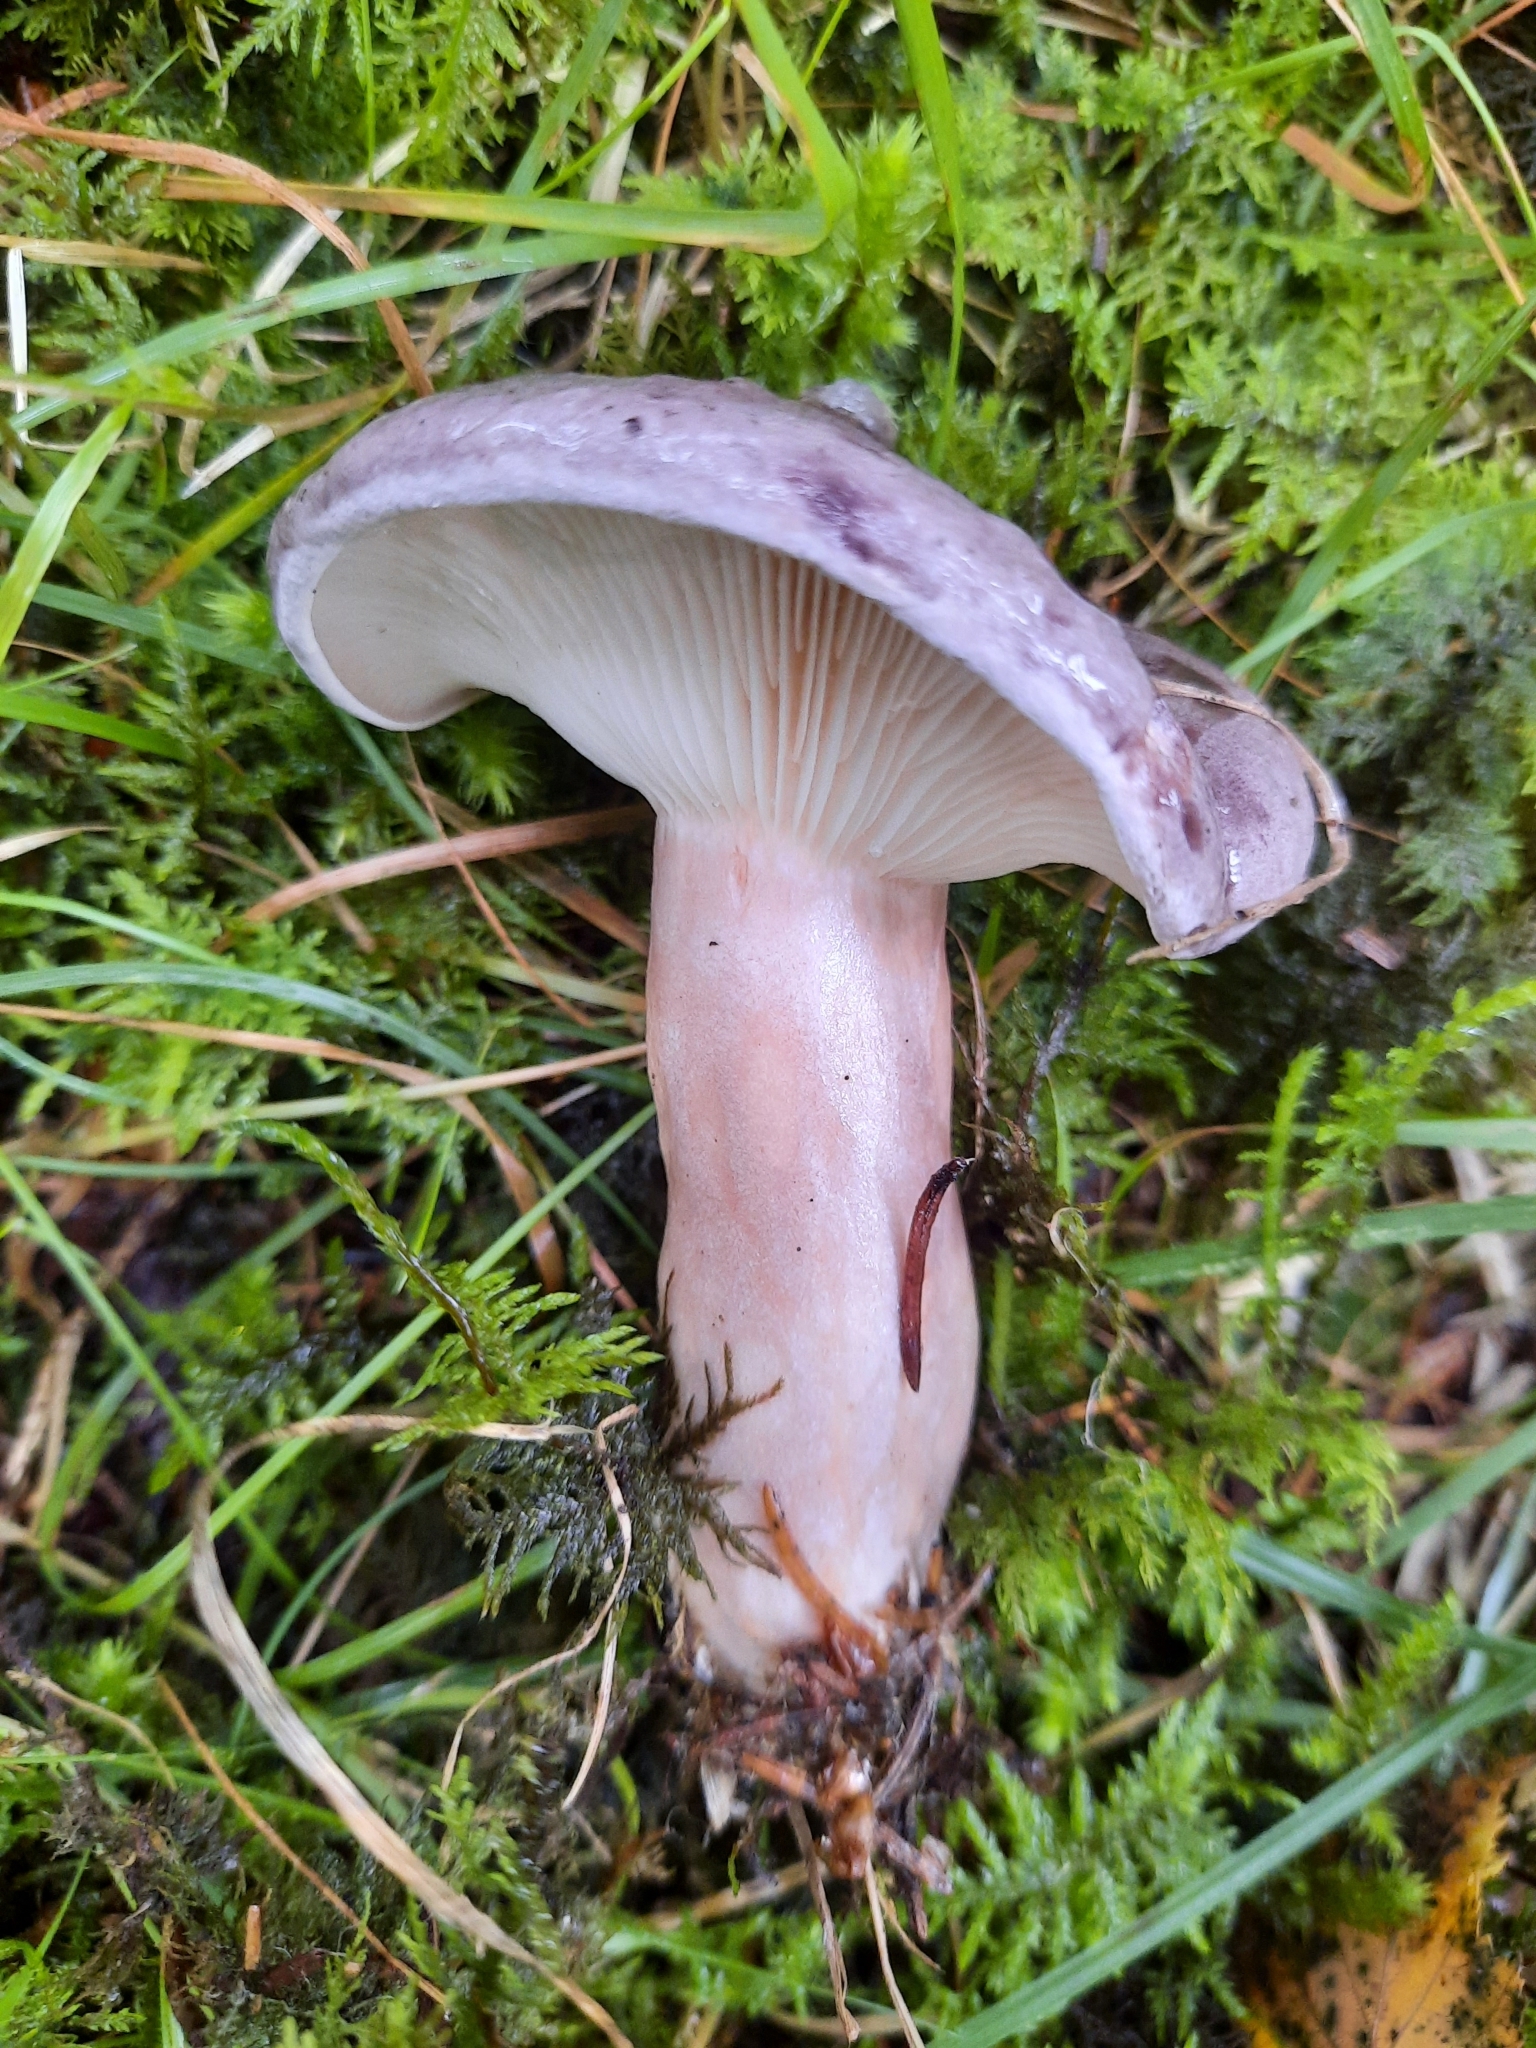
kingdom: Fungi
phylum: Basidiomycota
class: Agaricomycetes
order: Russulales
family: Russulaceae
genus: Lactarius
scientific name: Lactarius trivialis
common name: Tacked milkcap
